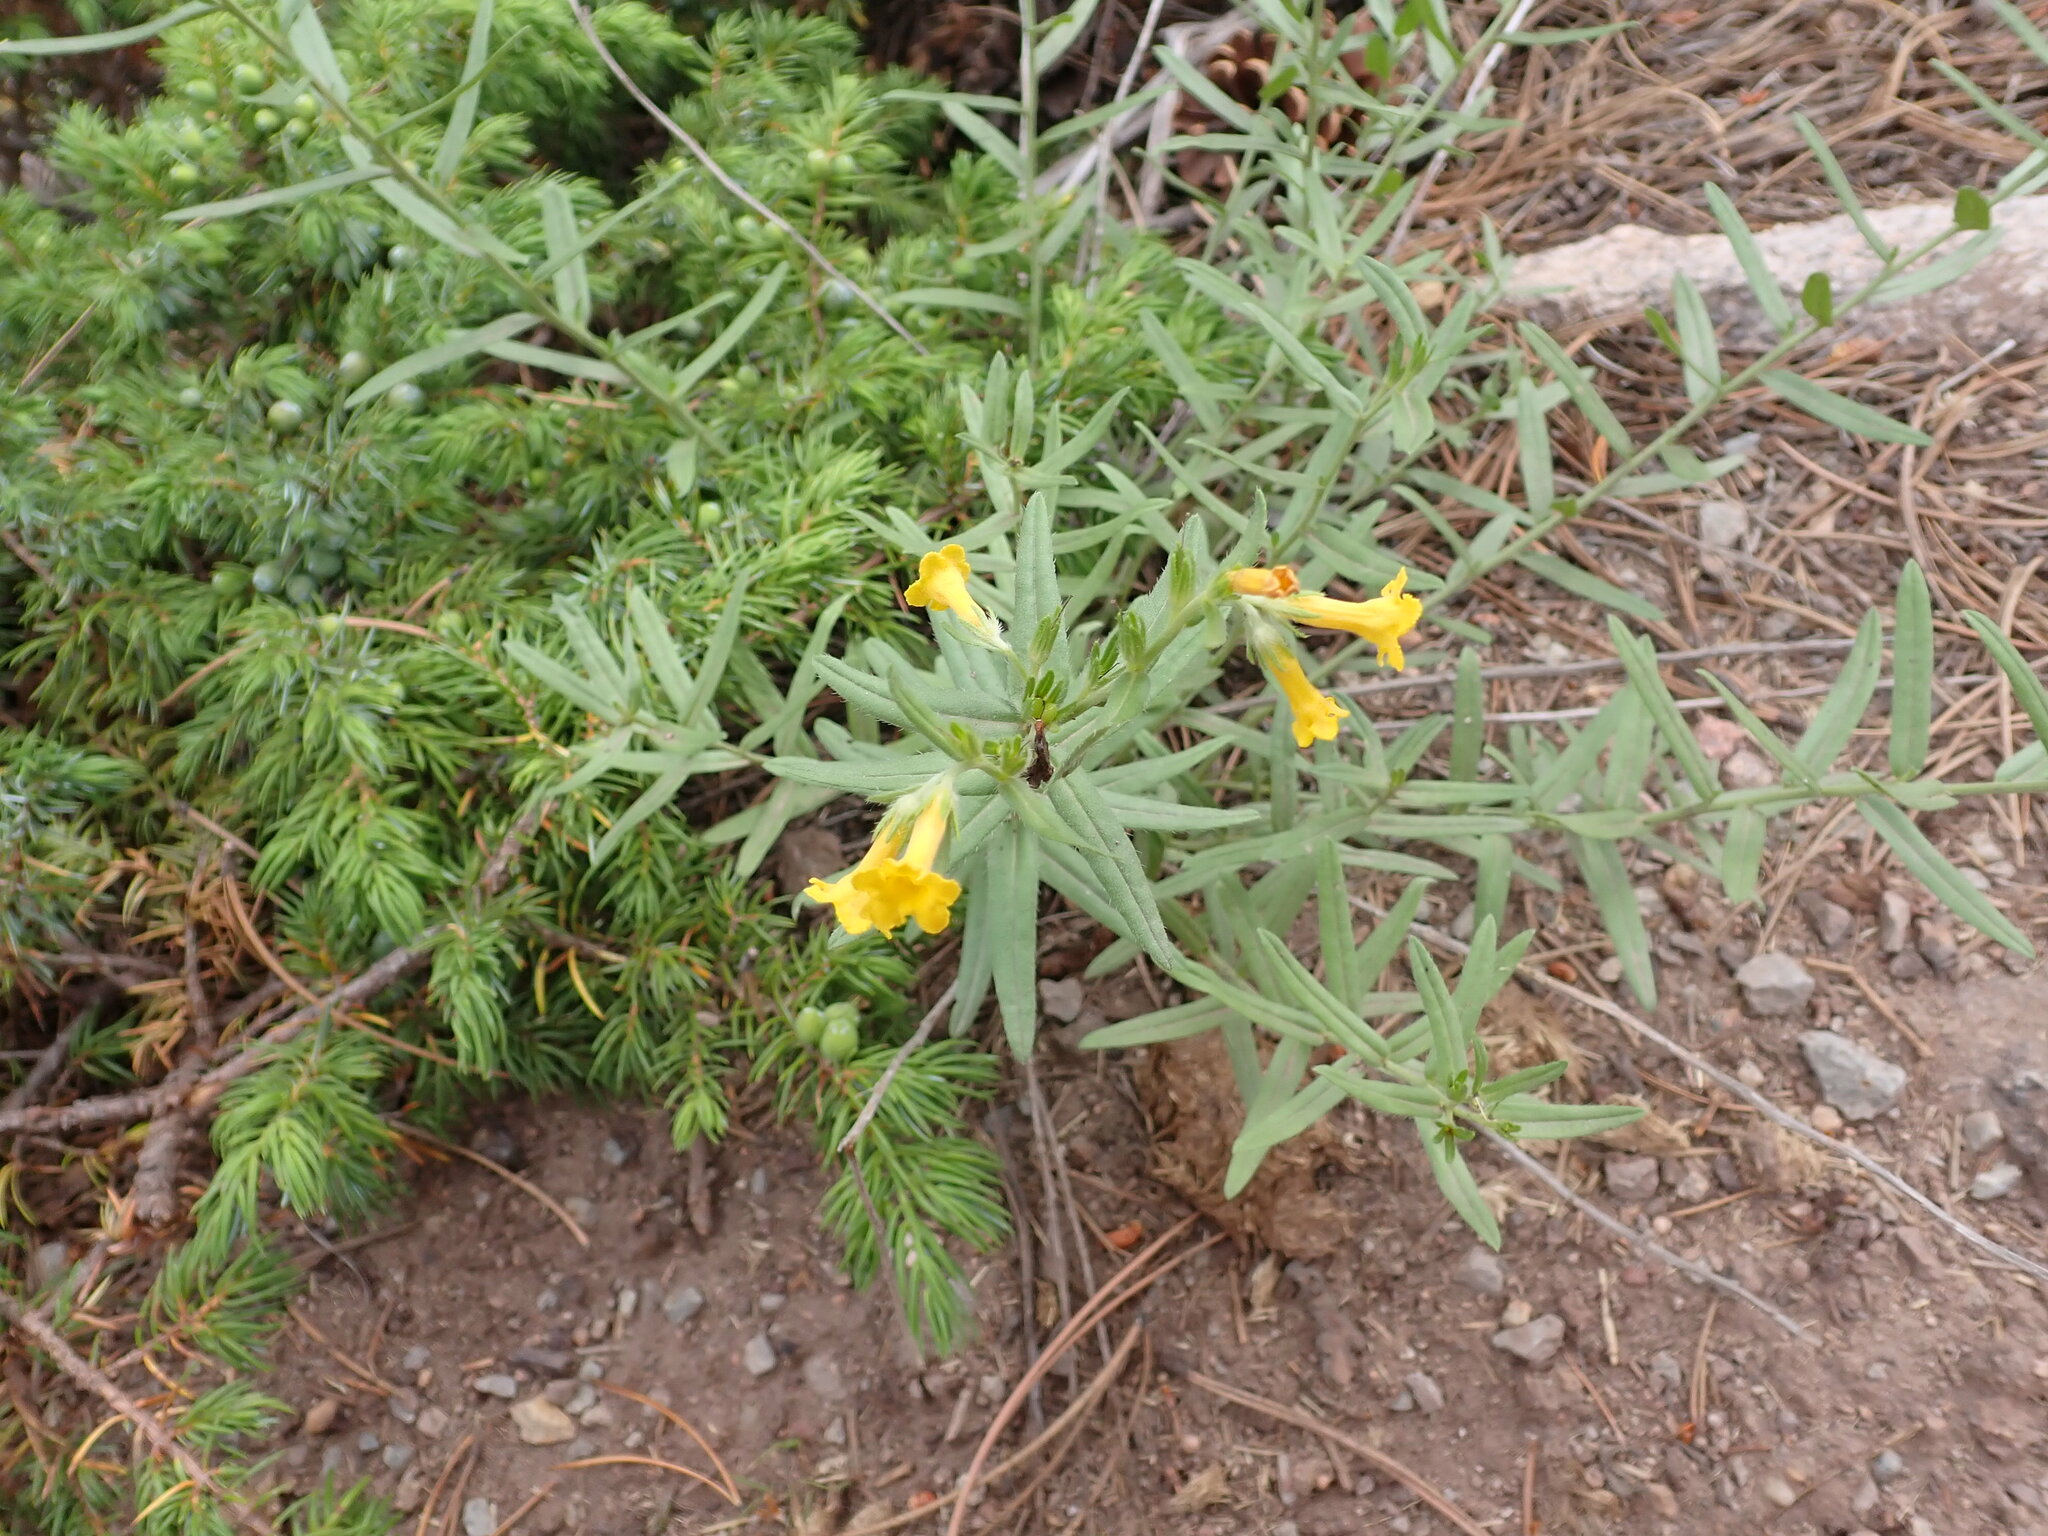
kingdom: Plantae
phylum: Tracheophyta
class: Magnoliopsida
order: Boraginales
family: Boraginaceae
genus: Lithospermum
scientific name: Lithospermum multiflorum
